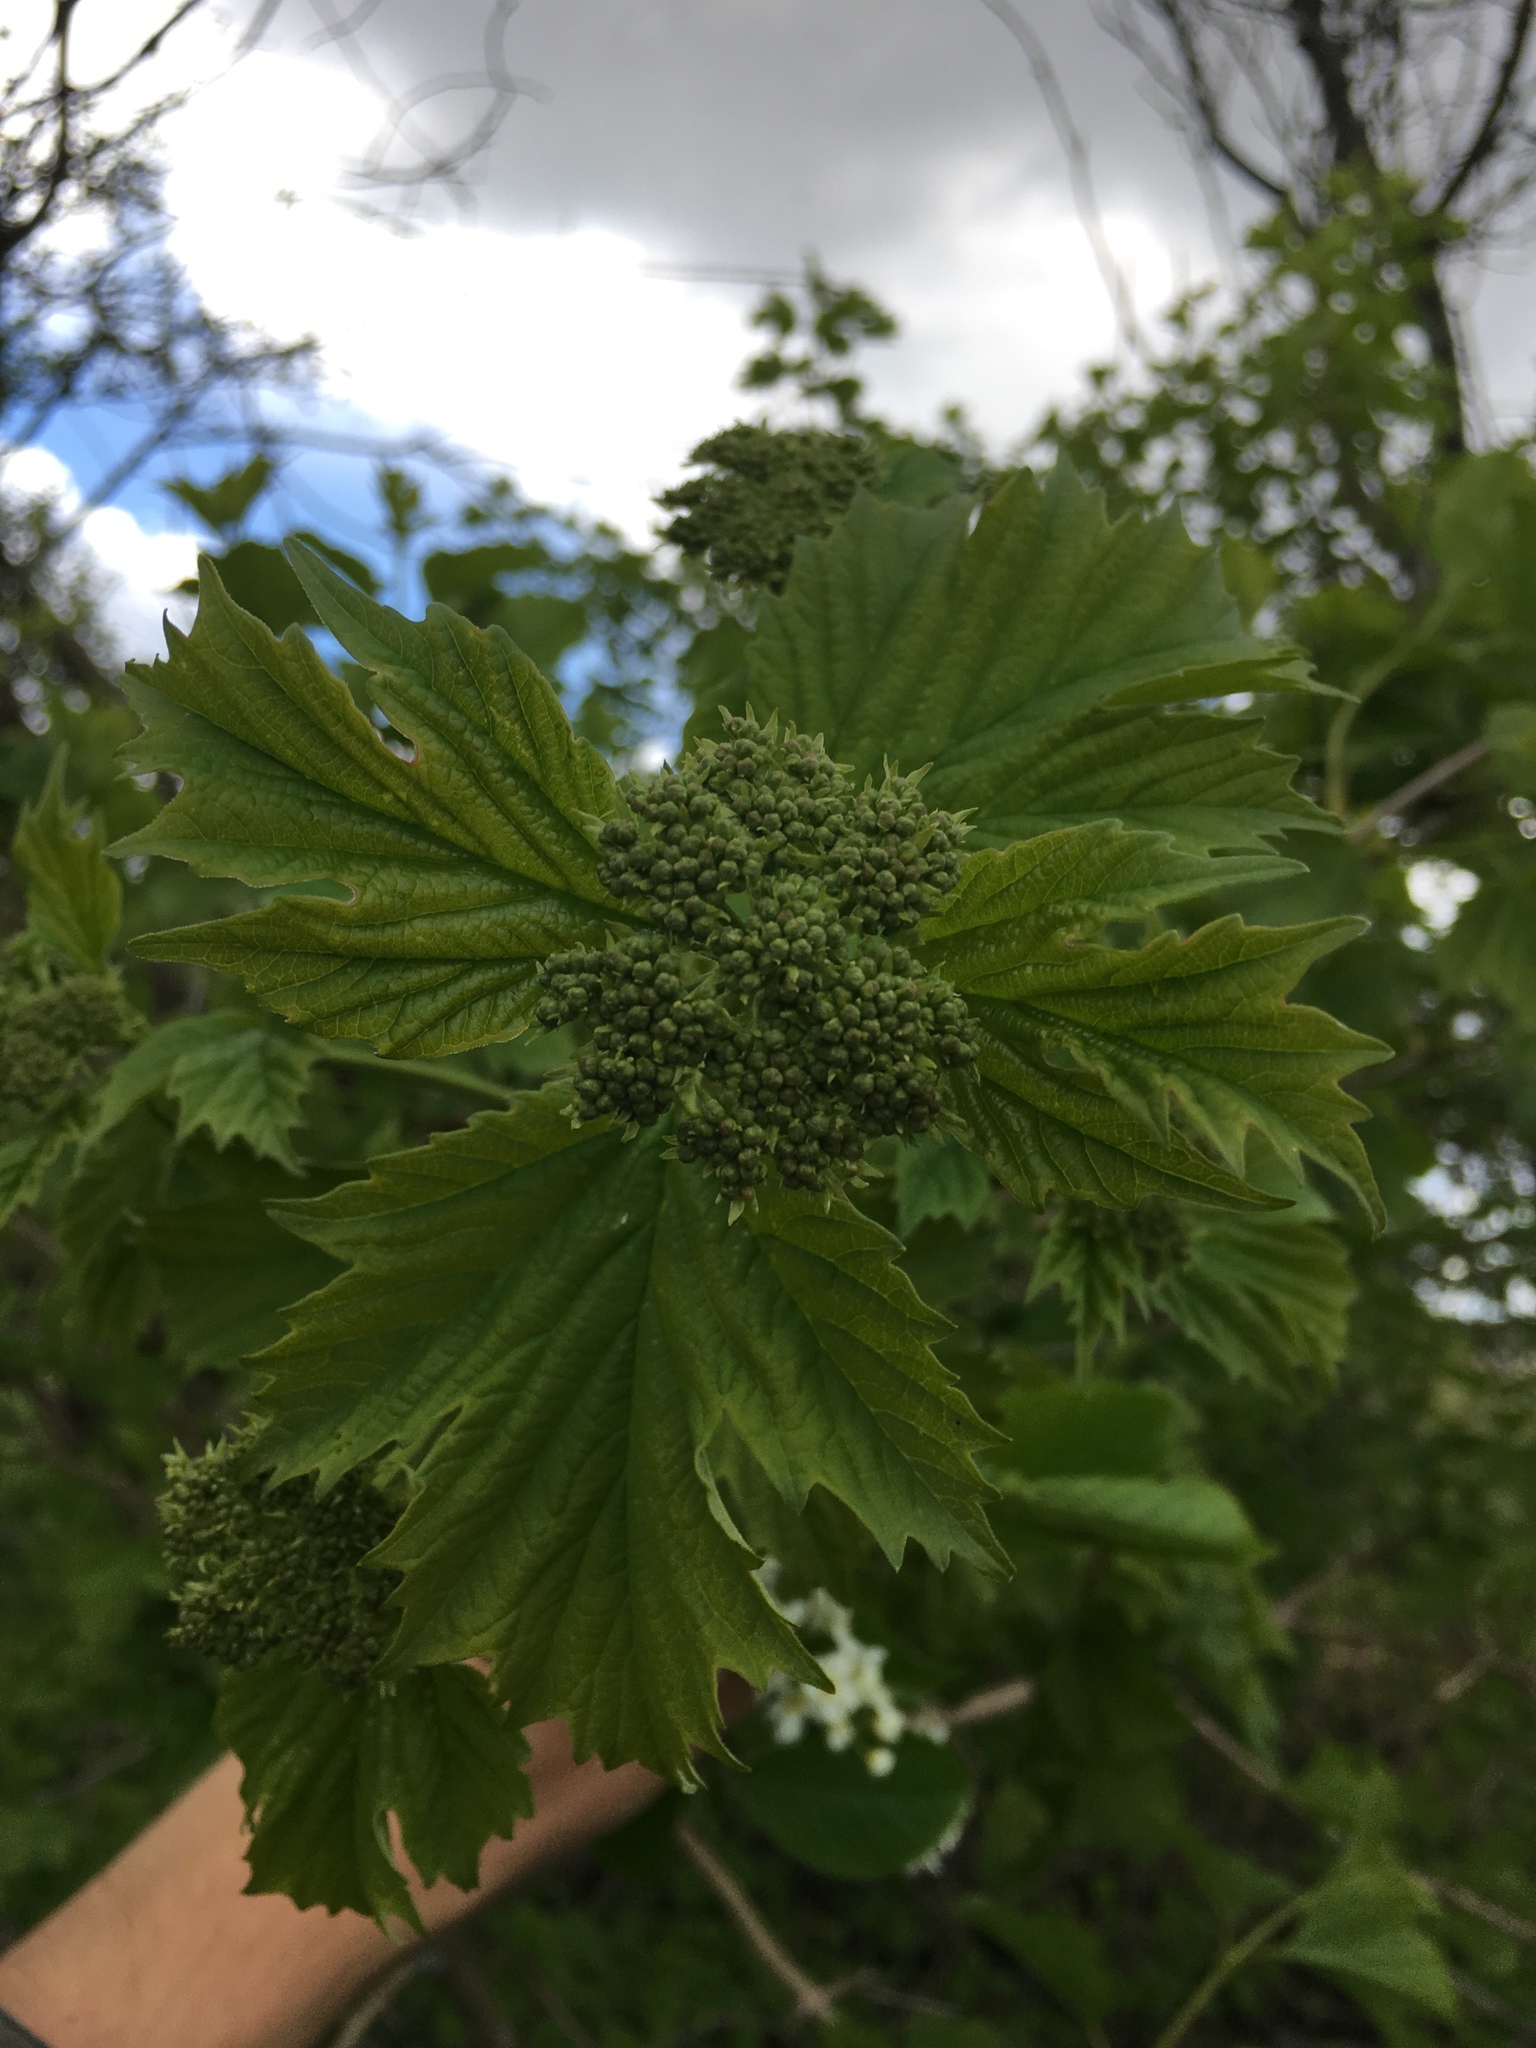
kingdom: Plantae
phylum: Tracheophyta
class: Magnoliopsida
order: Dipsacales
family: Viburnaceae
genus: Viburnum
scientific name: Viburnum opulus
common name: Guelder-rose
